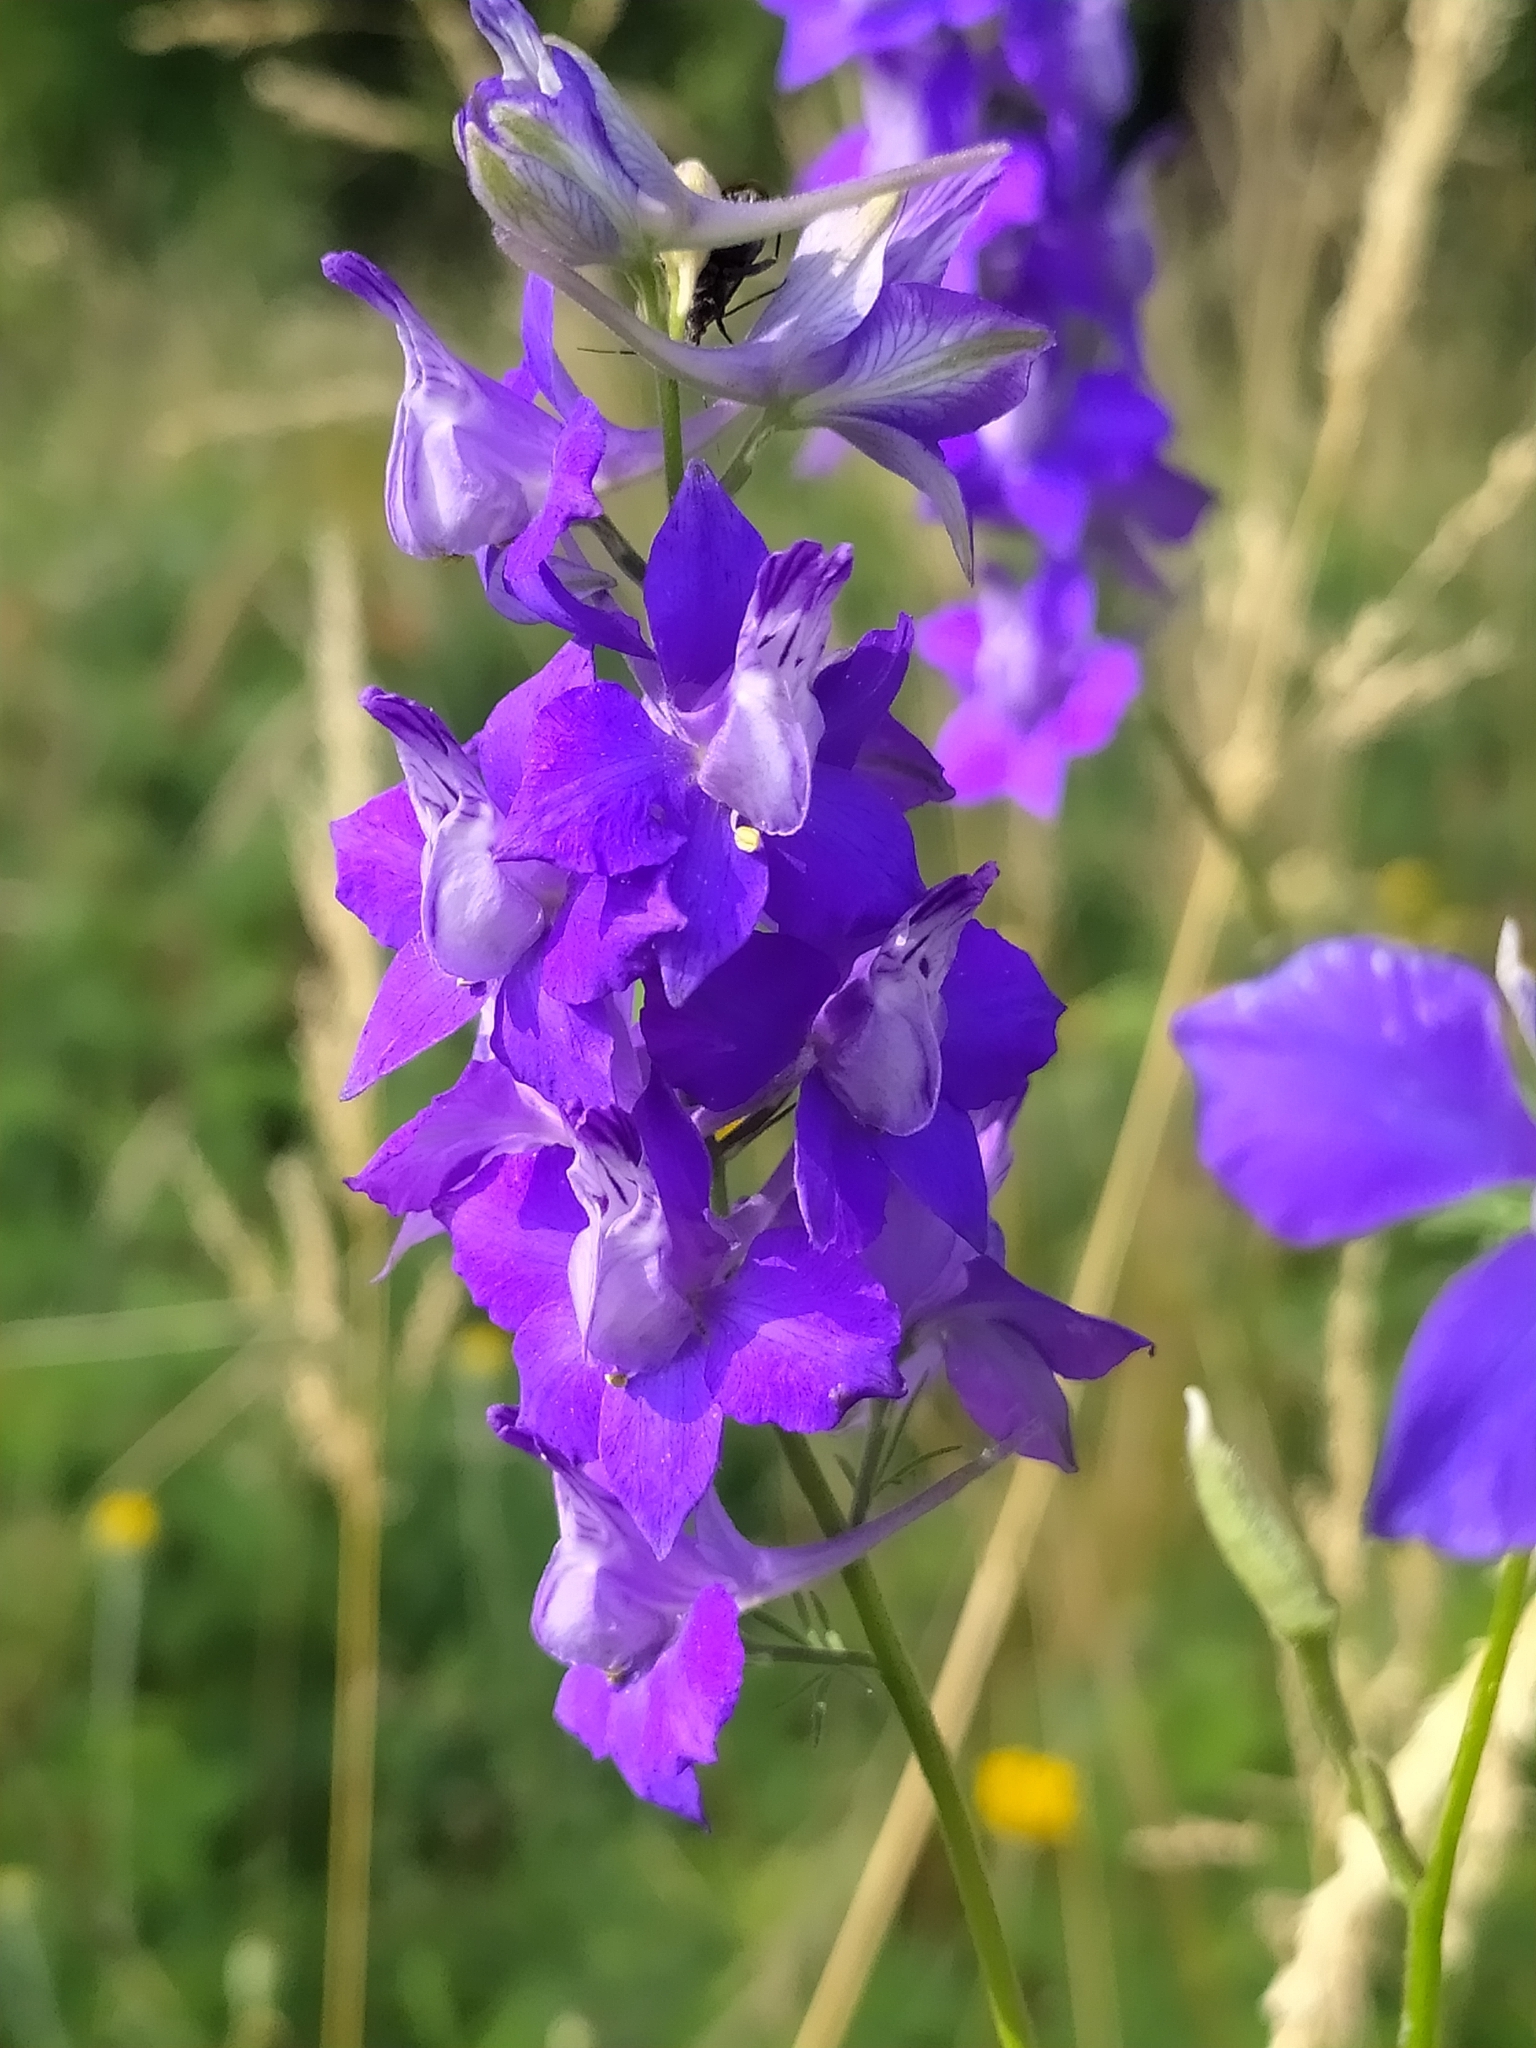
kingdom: Plantae
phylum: Tracheophyta
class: Magnoliopsida
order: Ranunculales
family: Ranunculaceae
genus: Delphinium
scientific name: Delphinium consolida
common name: Branching larkspur
